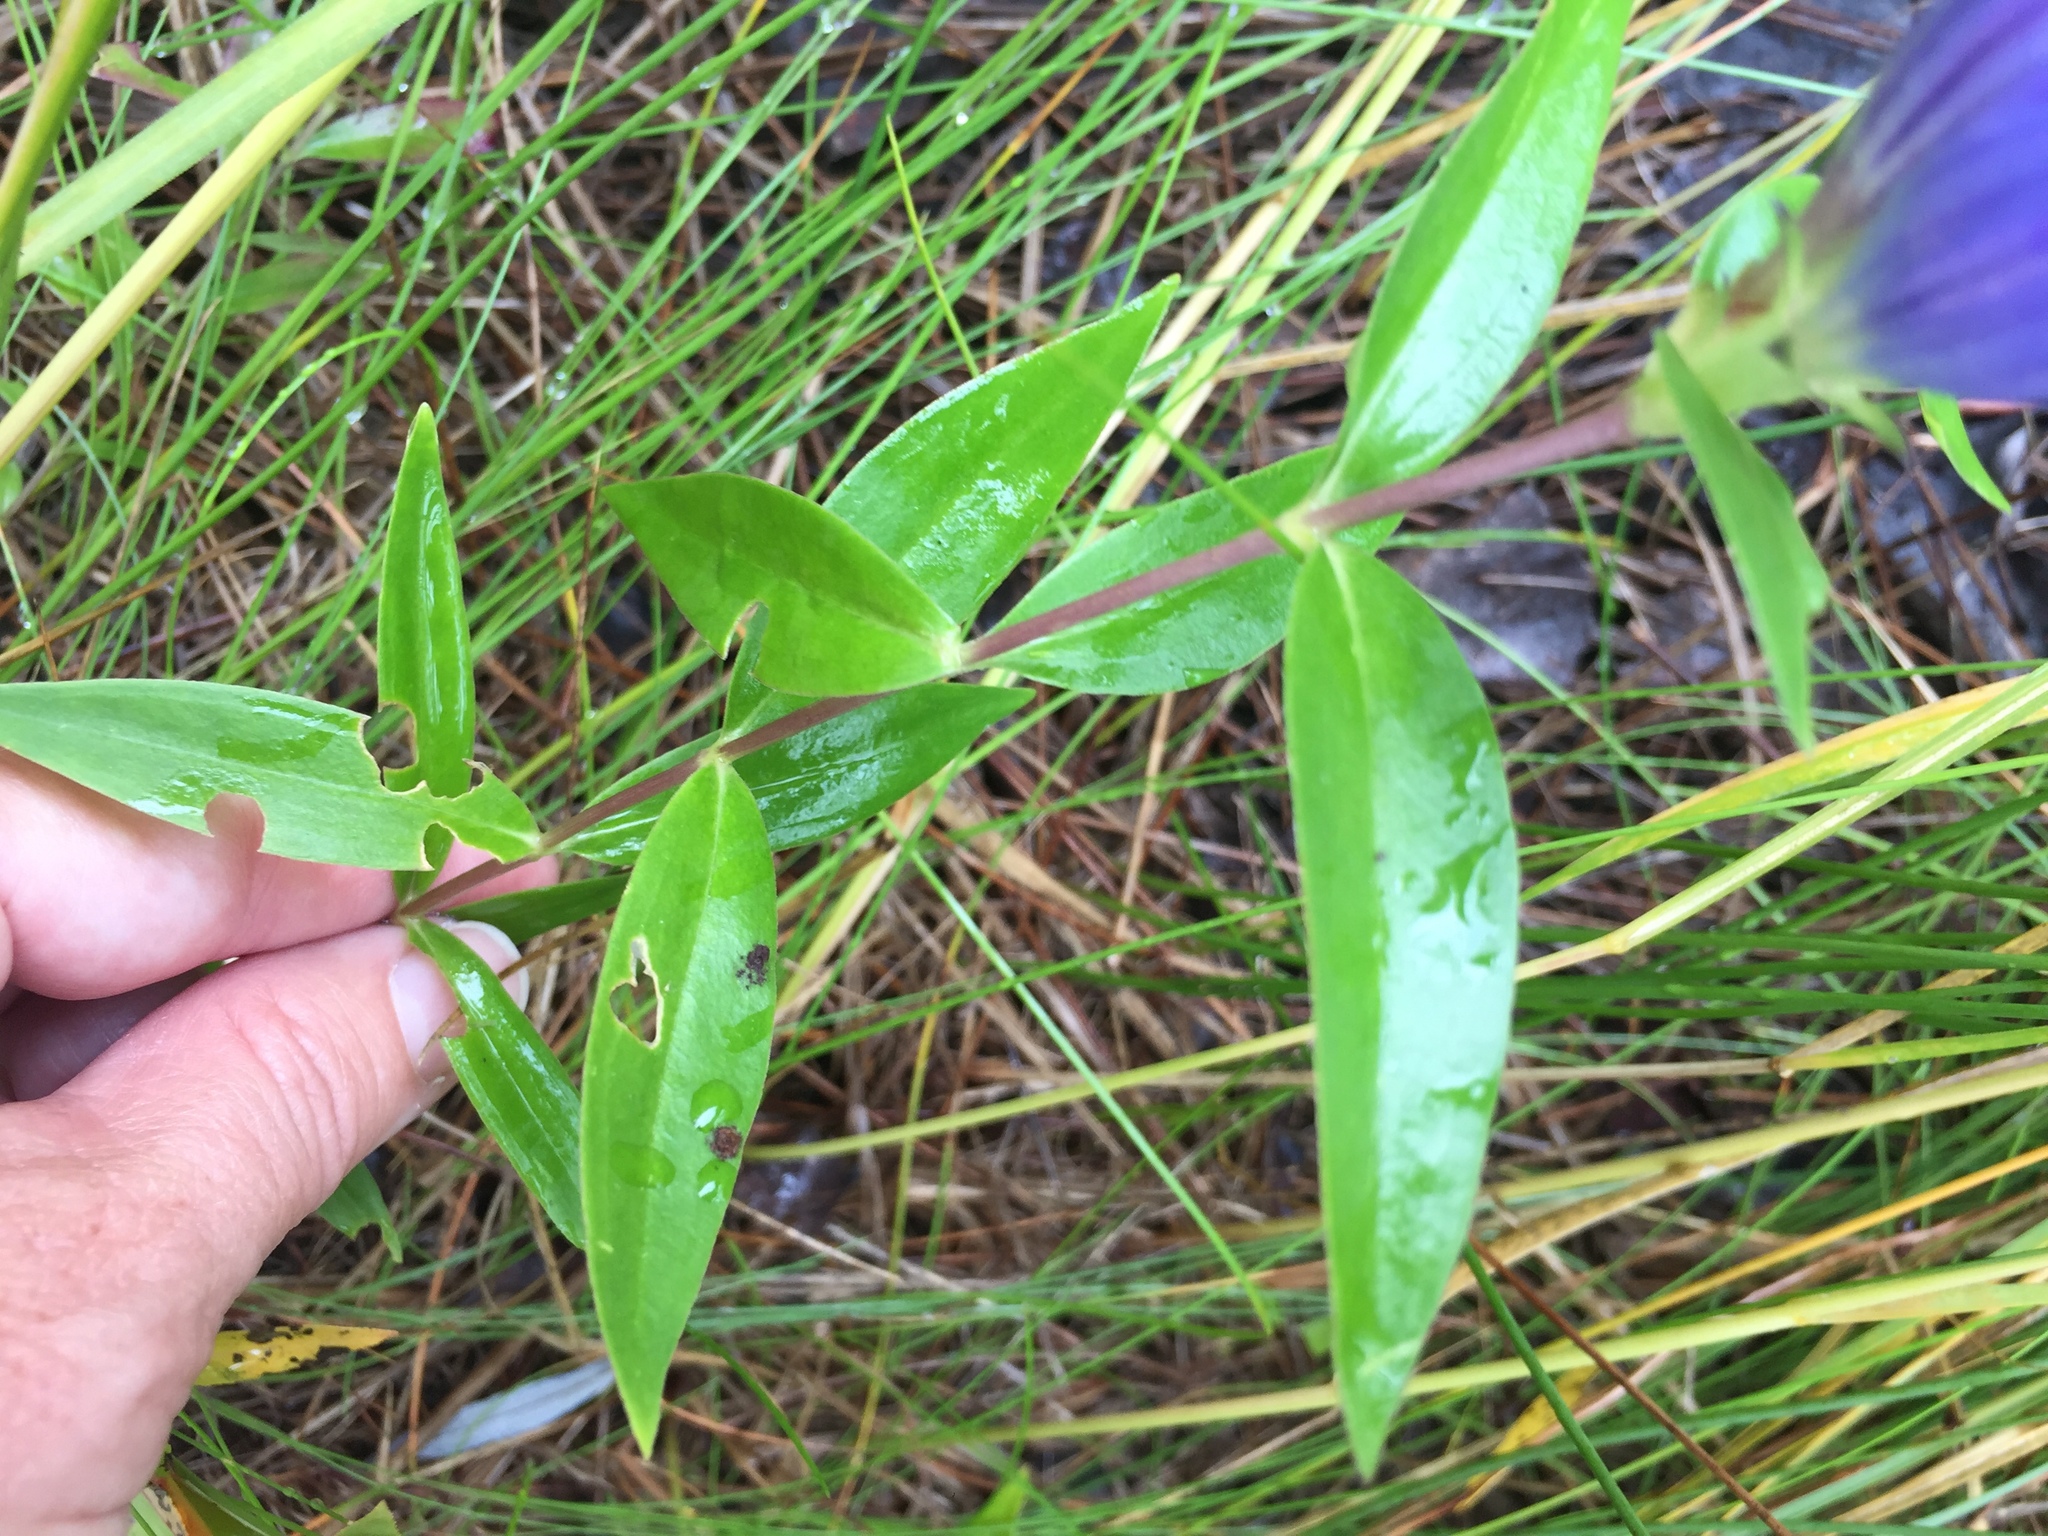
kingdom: Plantae
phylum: Tracheophyta
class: Magnoliopsida
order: Gentianales
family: Gentianaceae
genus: Gentiana
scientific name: Gentiana andrewsii
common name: Bottle gentian
